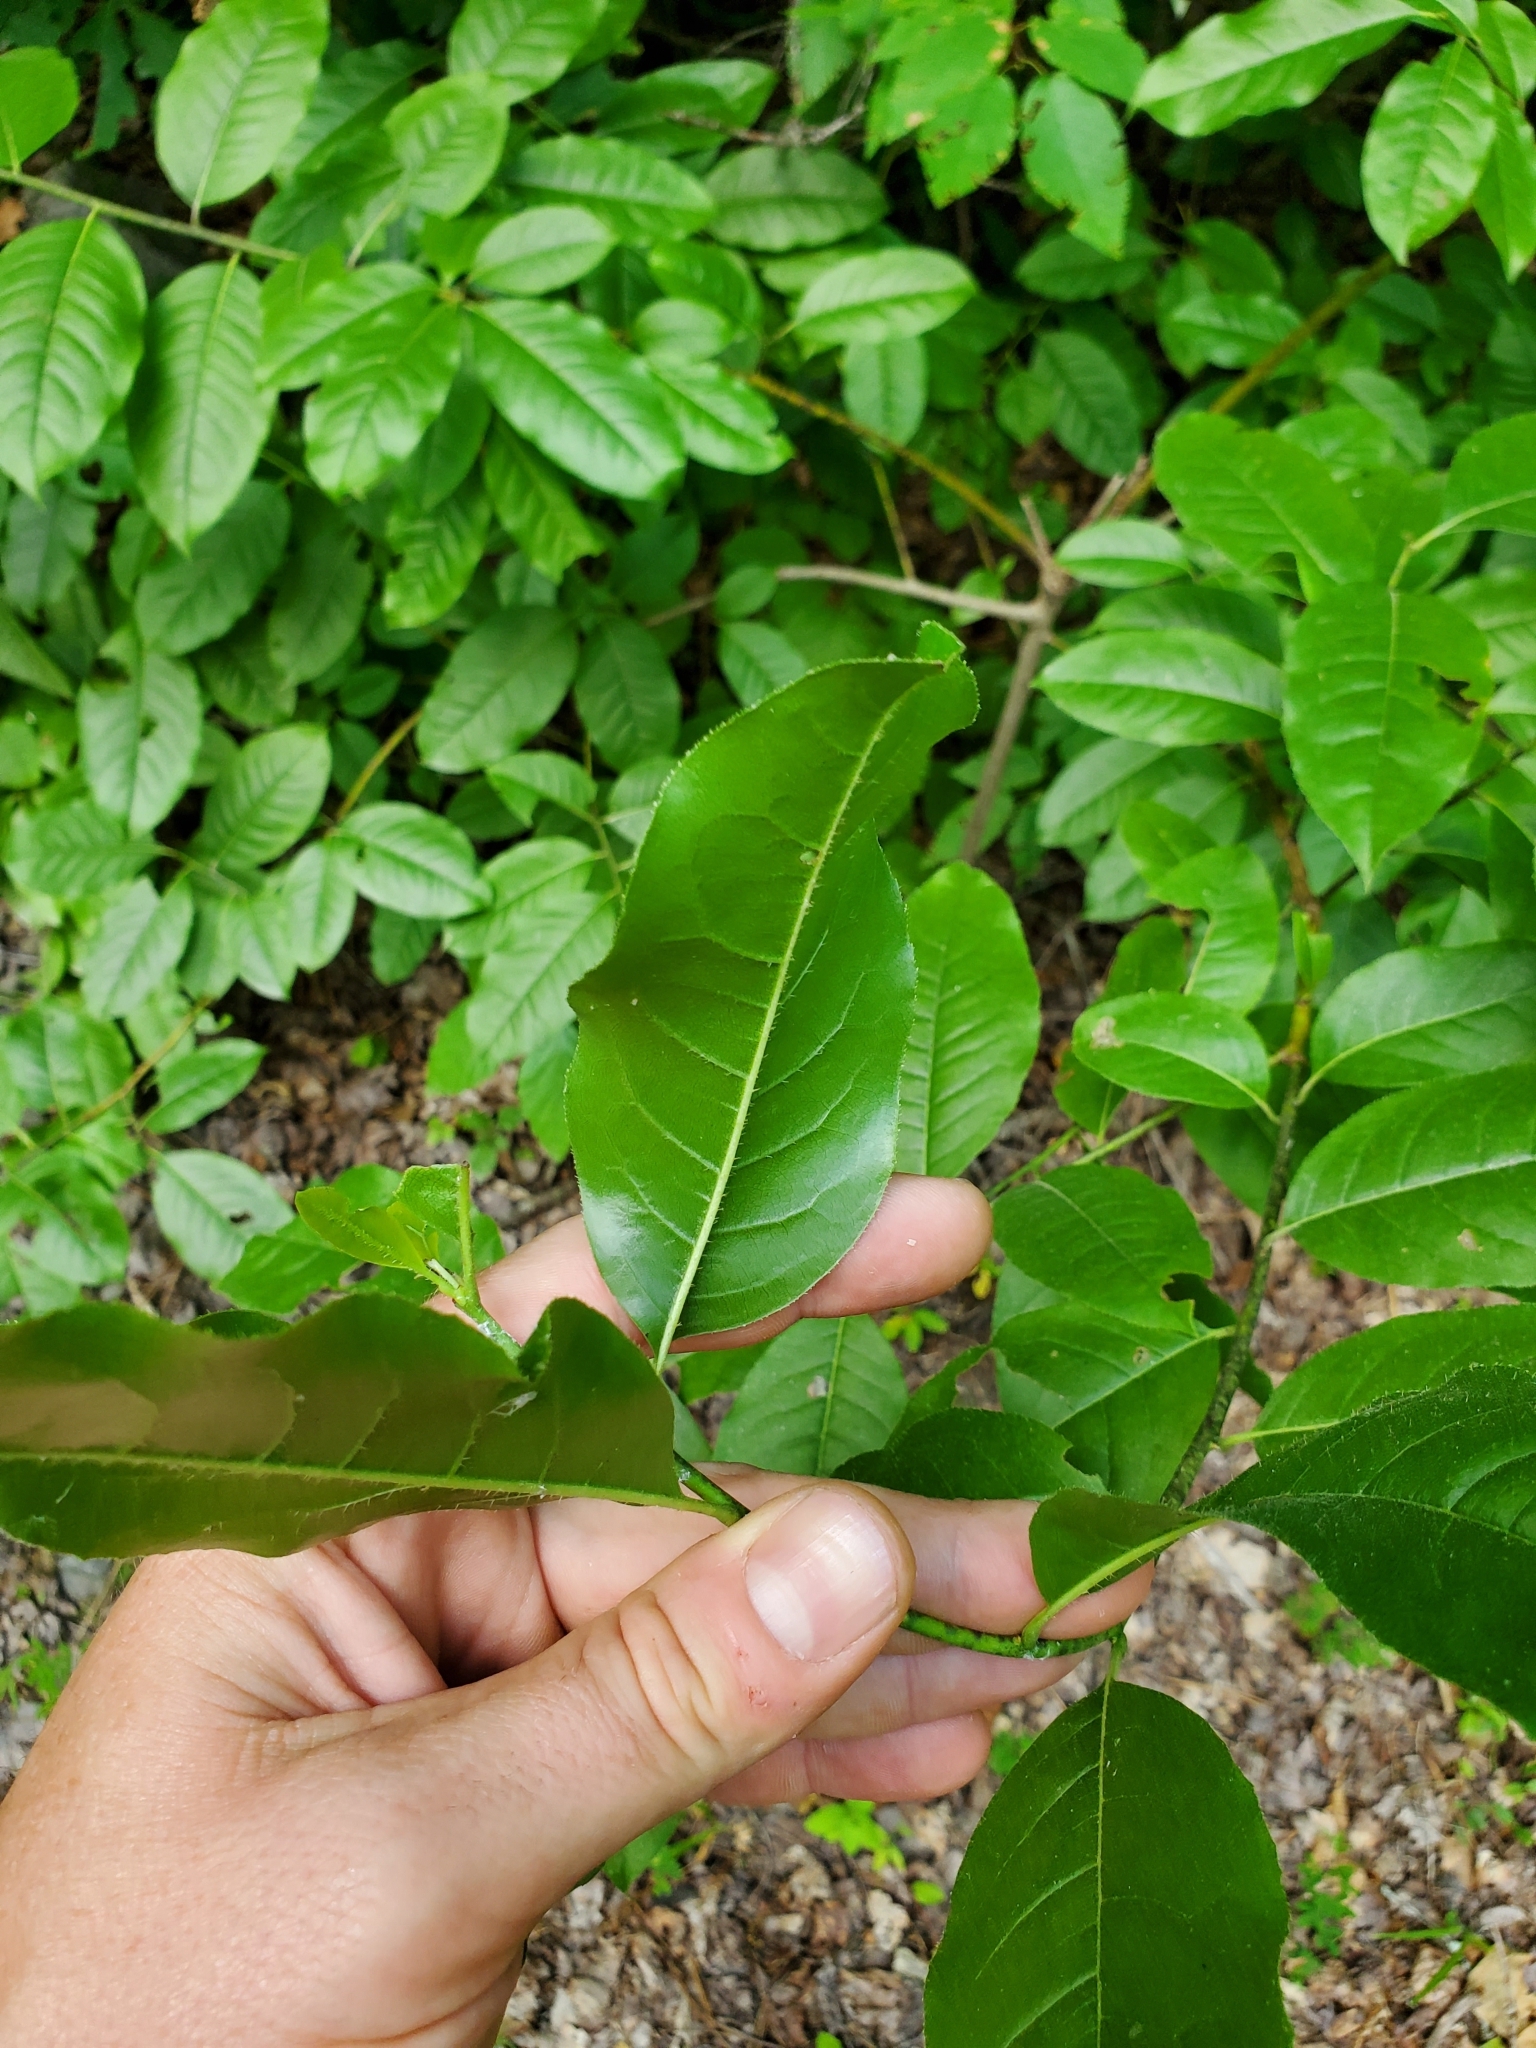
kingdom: Plantae
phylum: Tracheophyta
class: Magnoliopsida
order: Ericales
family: Ericaceae
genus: Oxydendrum
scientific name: Oxydendrum arboreum
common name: Sourwood
